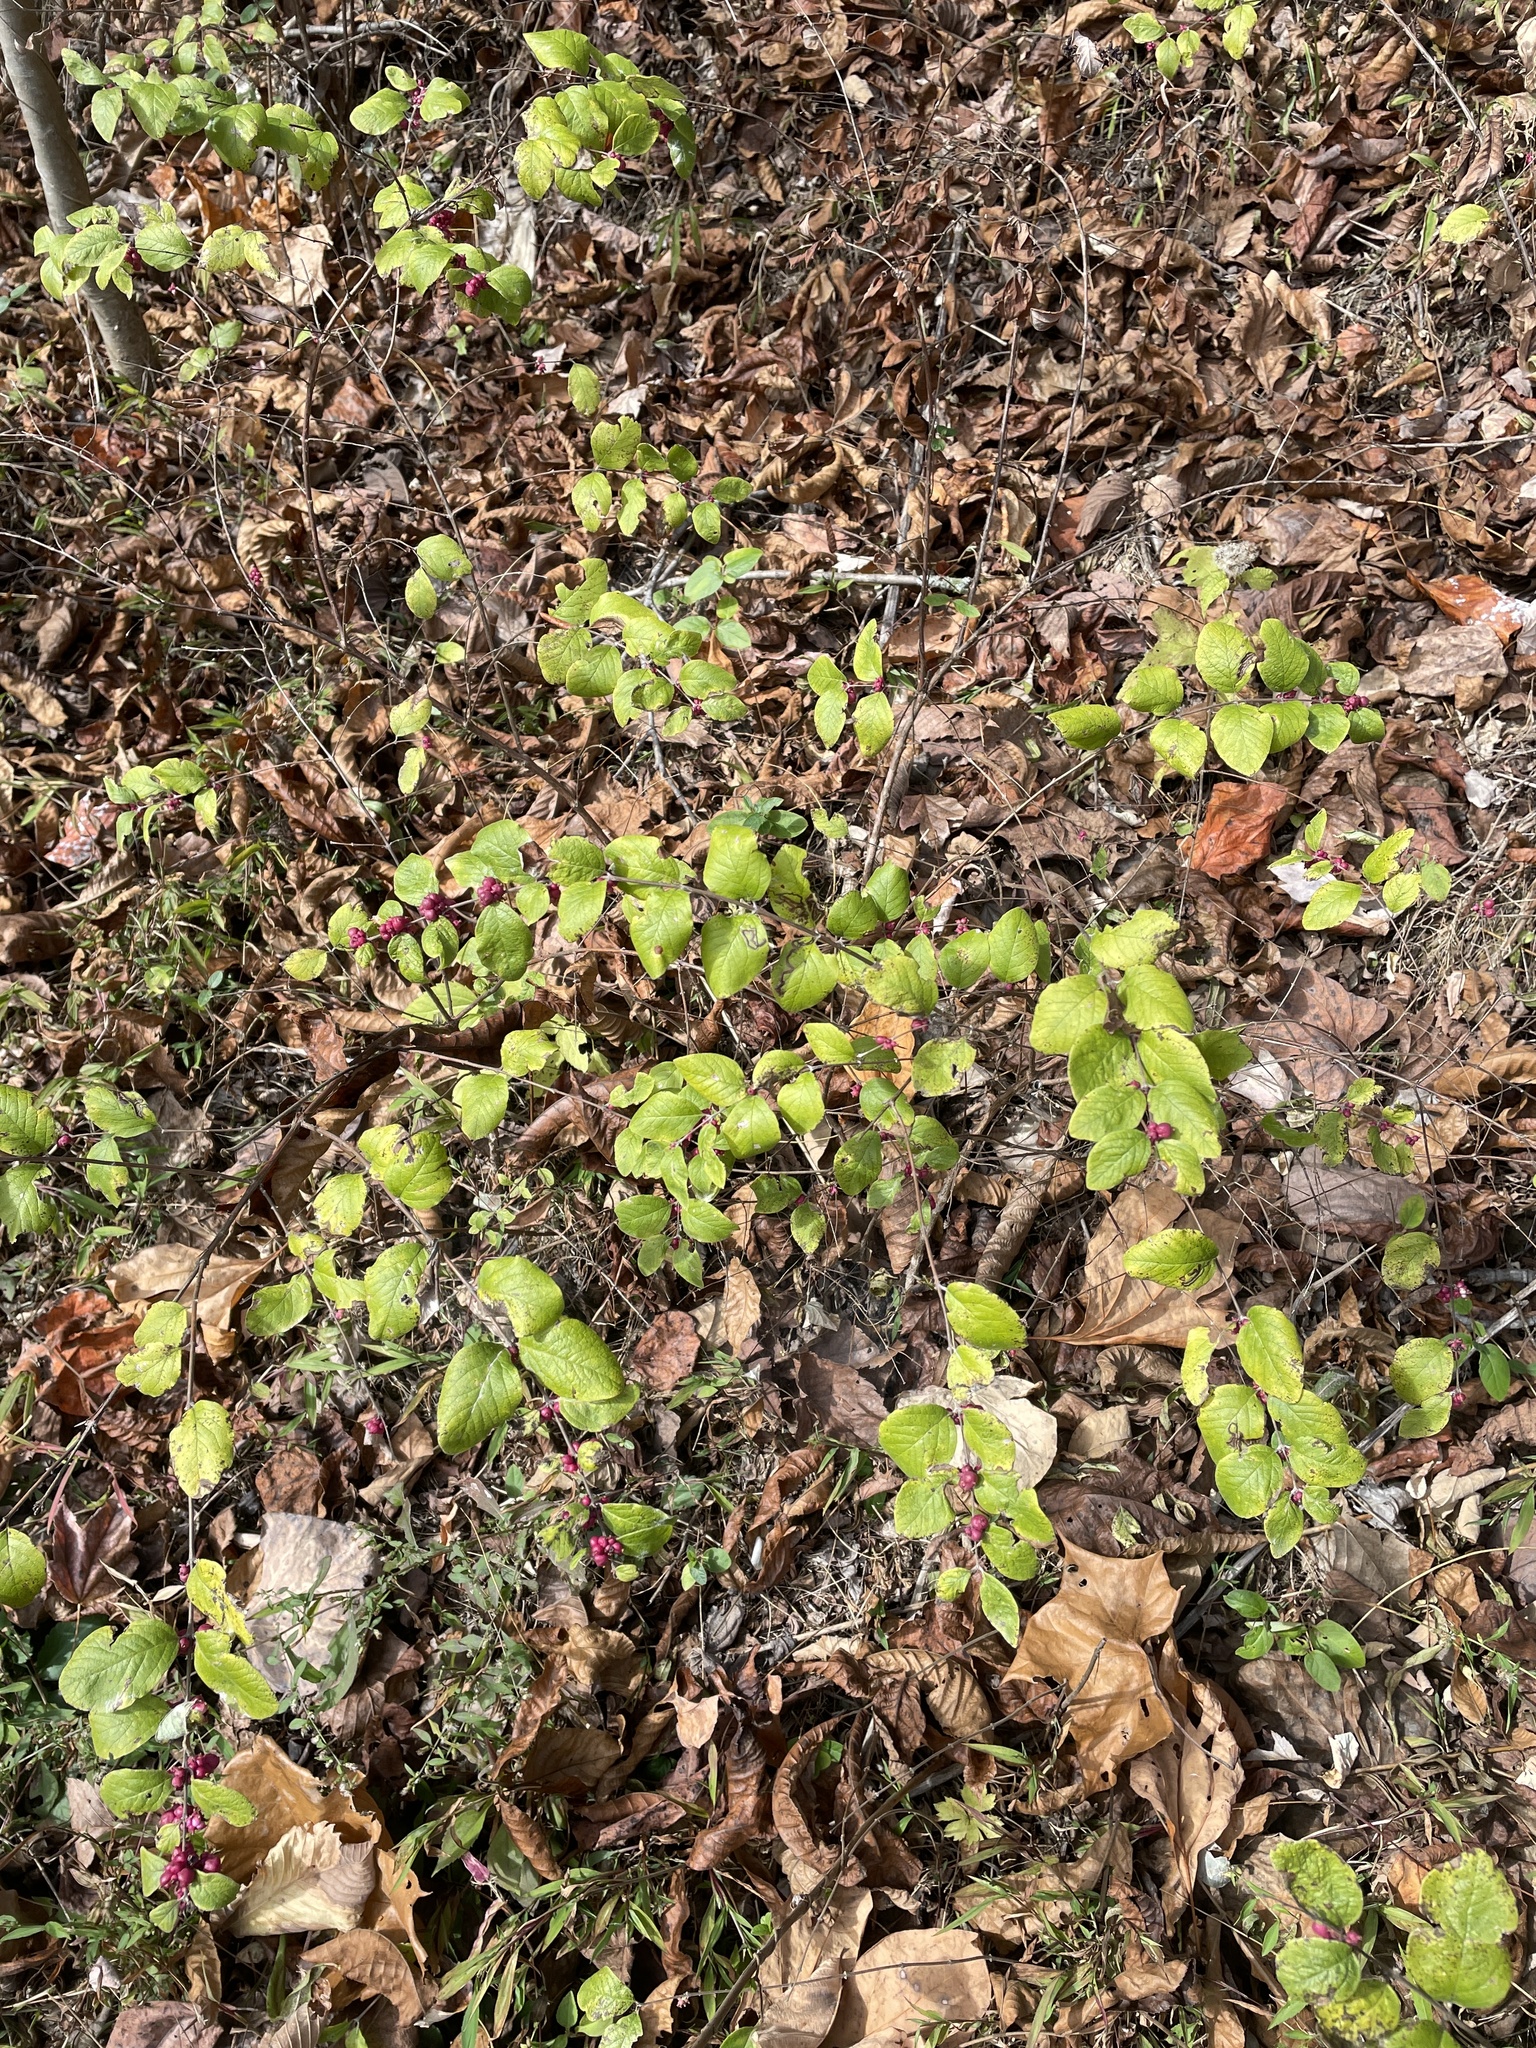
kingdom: Plantae
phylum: Tracheophyta
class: Magnoliopsida
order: Dipsacales
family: Caprifoliaceae
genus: Symphoricarpos
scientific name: Symphoricarpos orbiculatus
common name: Coralberry
